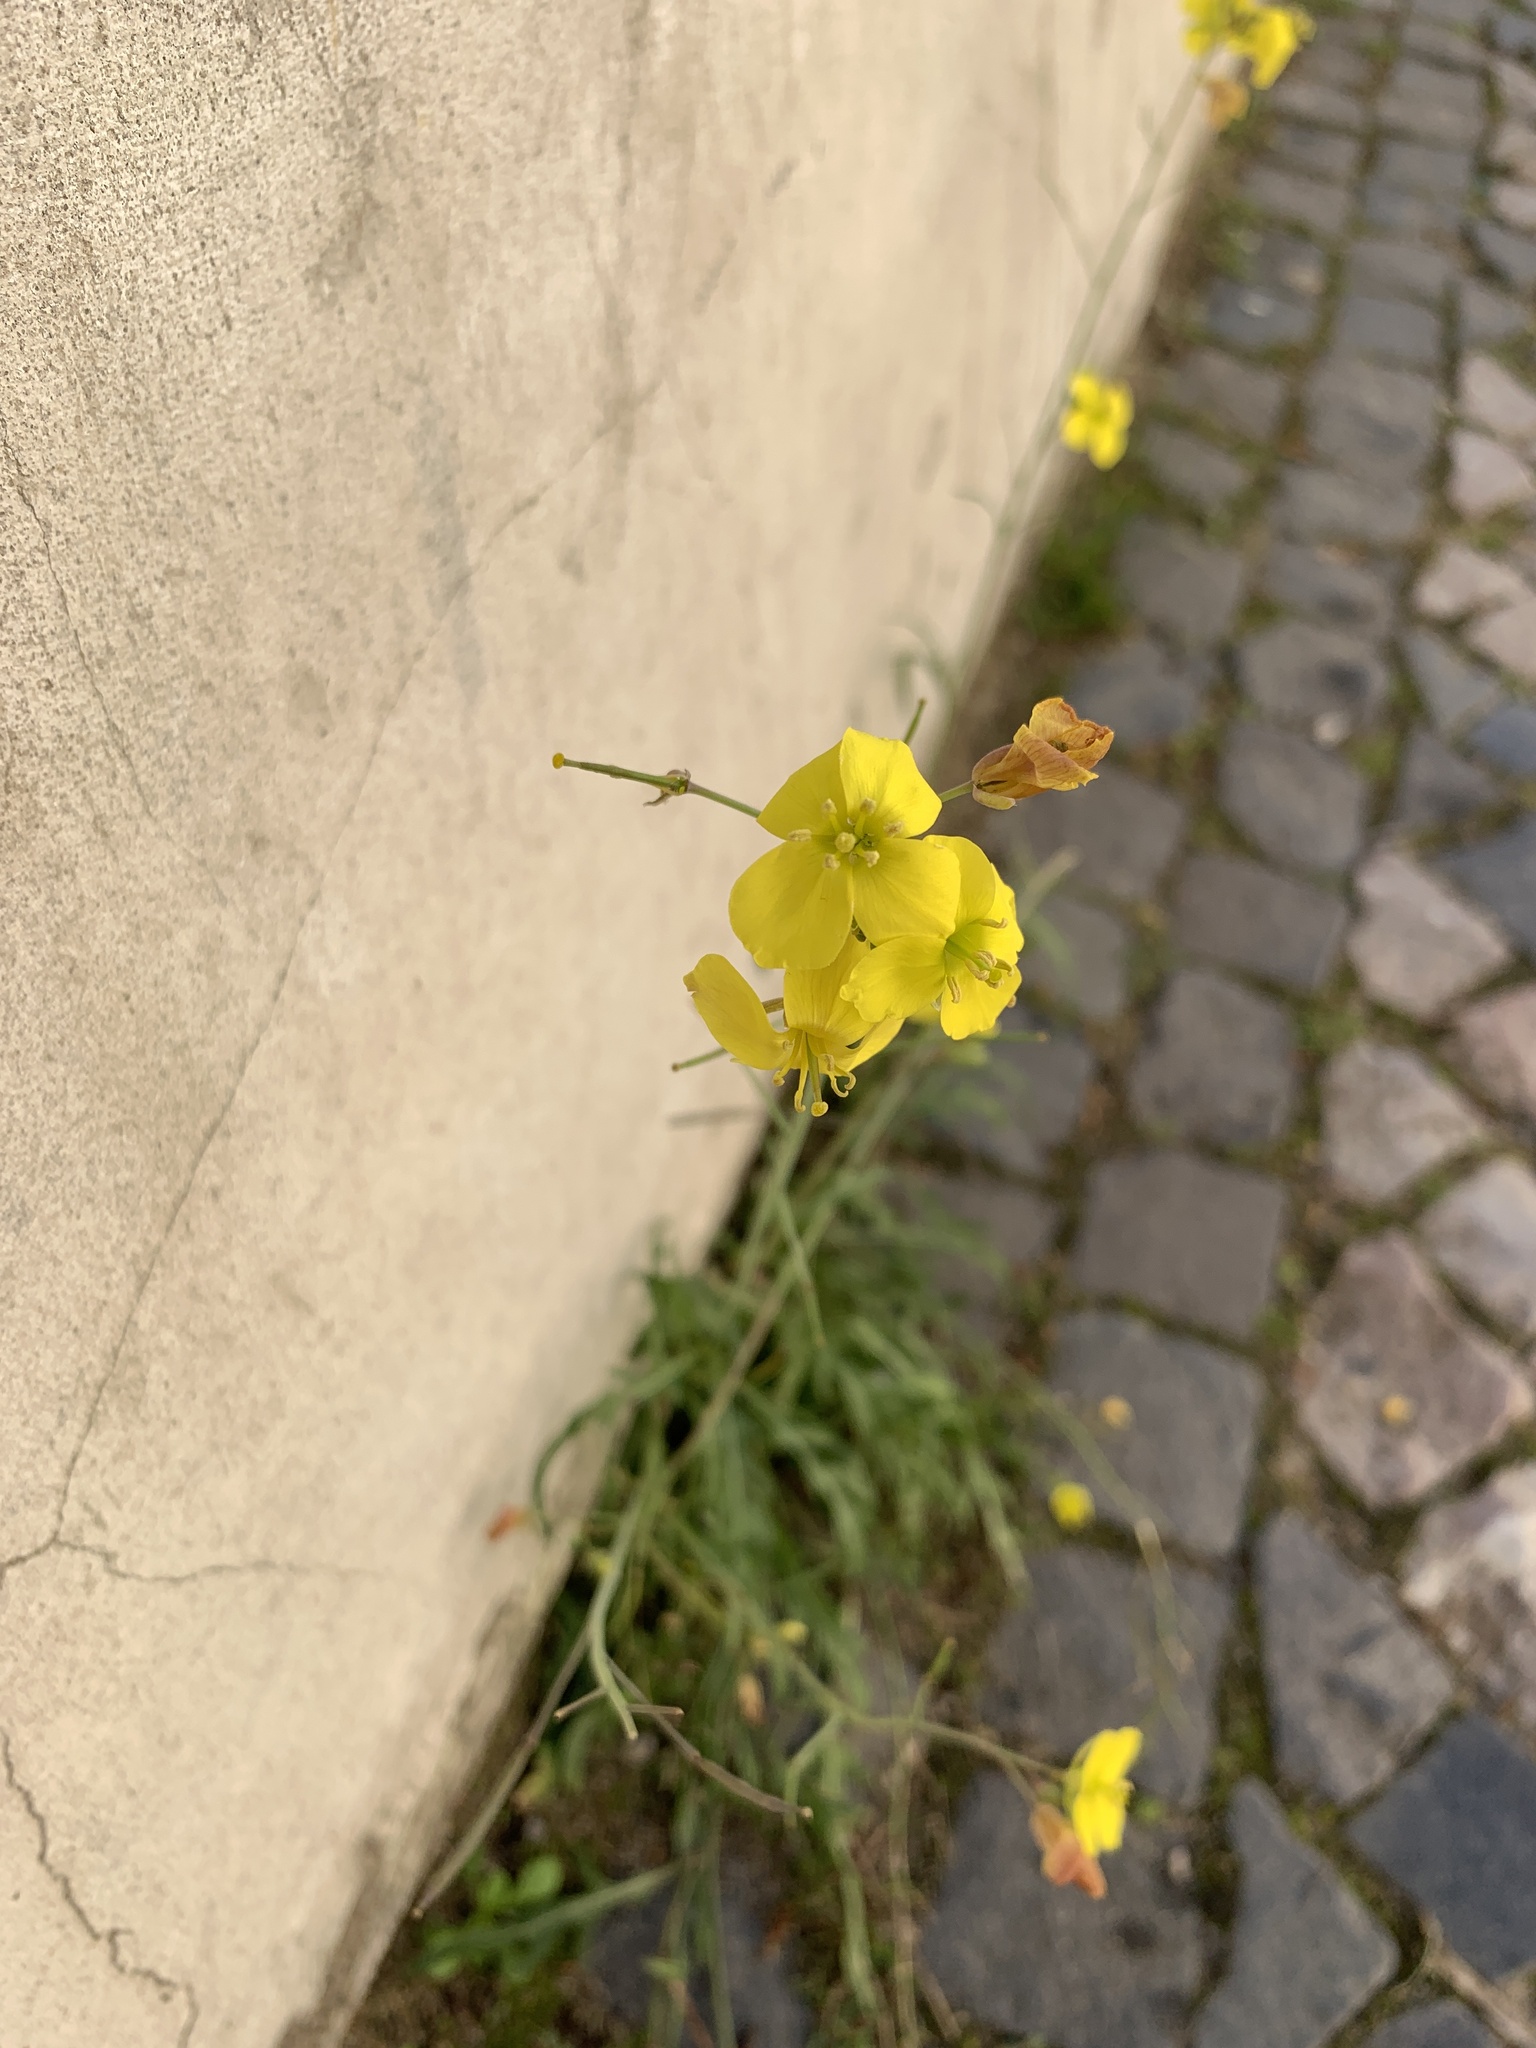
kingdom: Plantae
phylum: Tracheophyta
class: Magnoliopsida
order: Brassicales
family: Brassicaceae
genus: Diplotaxis
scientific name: Diplotaxis tenuifolia
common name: Perennial wall-rocket
